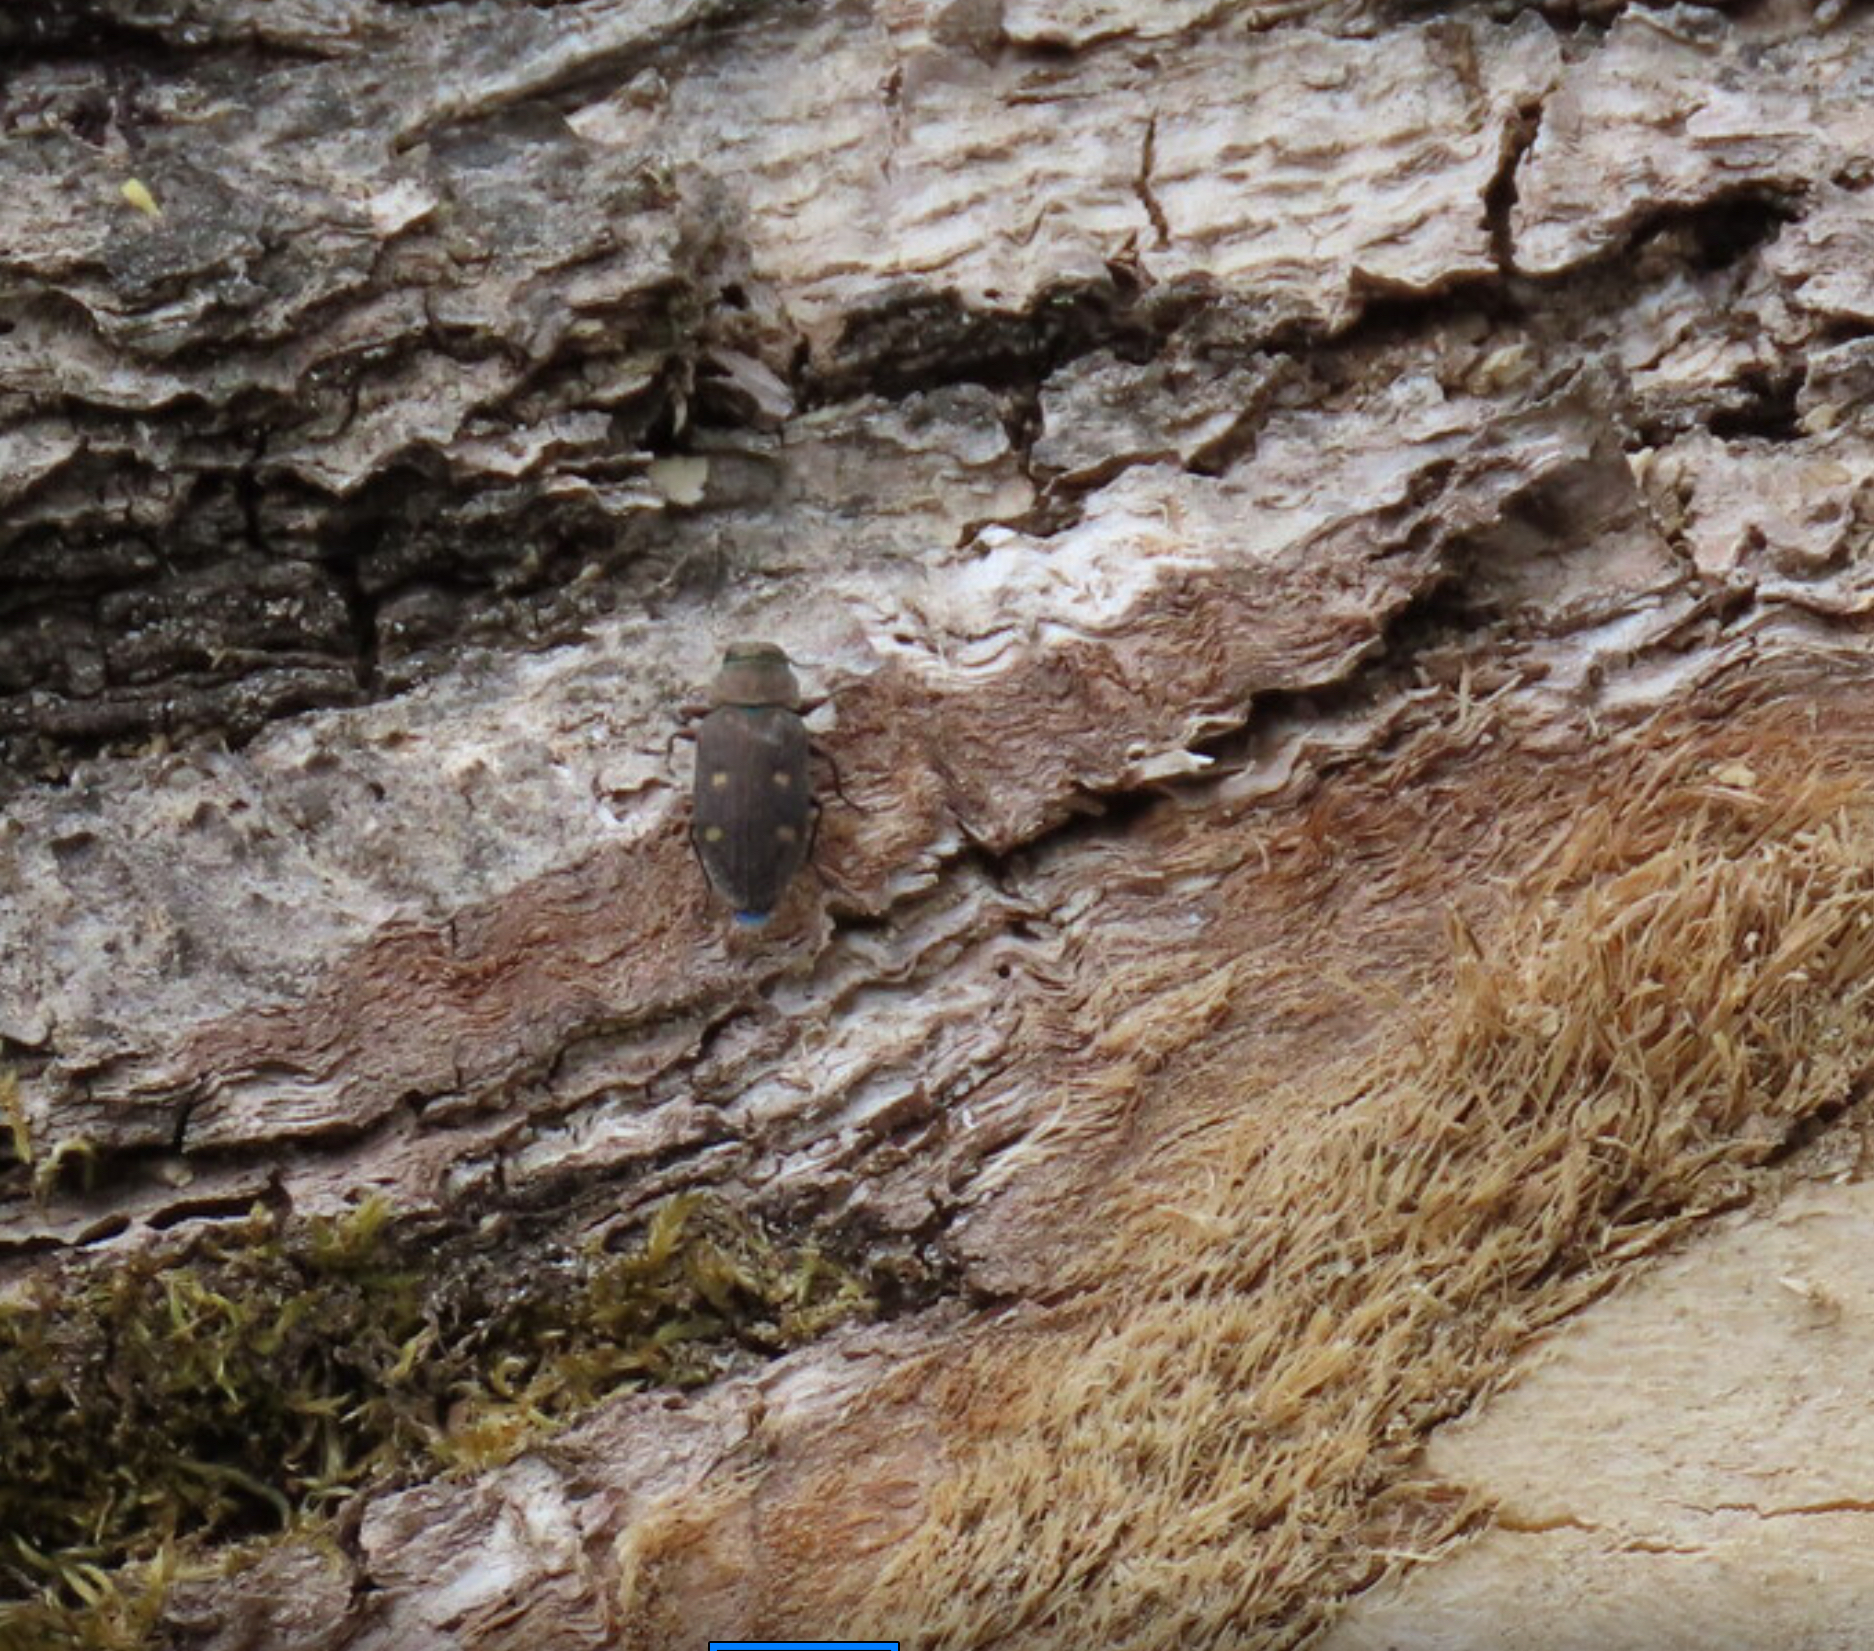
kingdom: Animalia
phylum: Arthropoda
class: Insecta
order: Coleoptera
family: Buprestidae
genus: Chrysobothris
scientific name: Chrysobothris affinis
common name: Beetle
